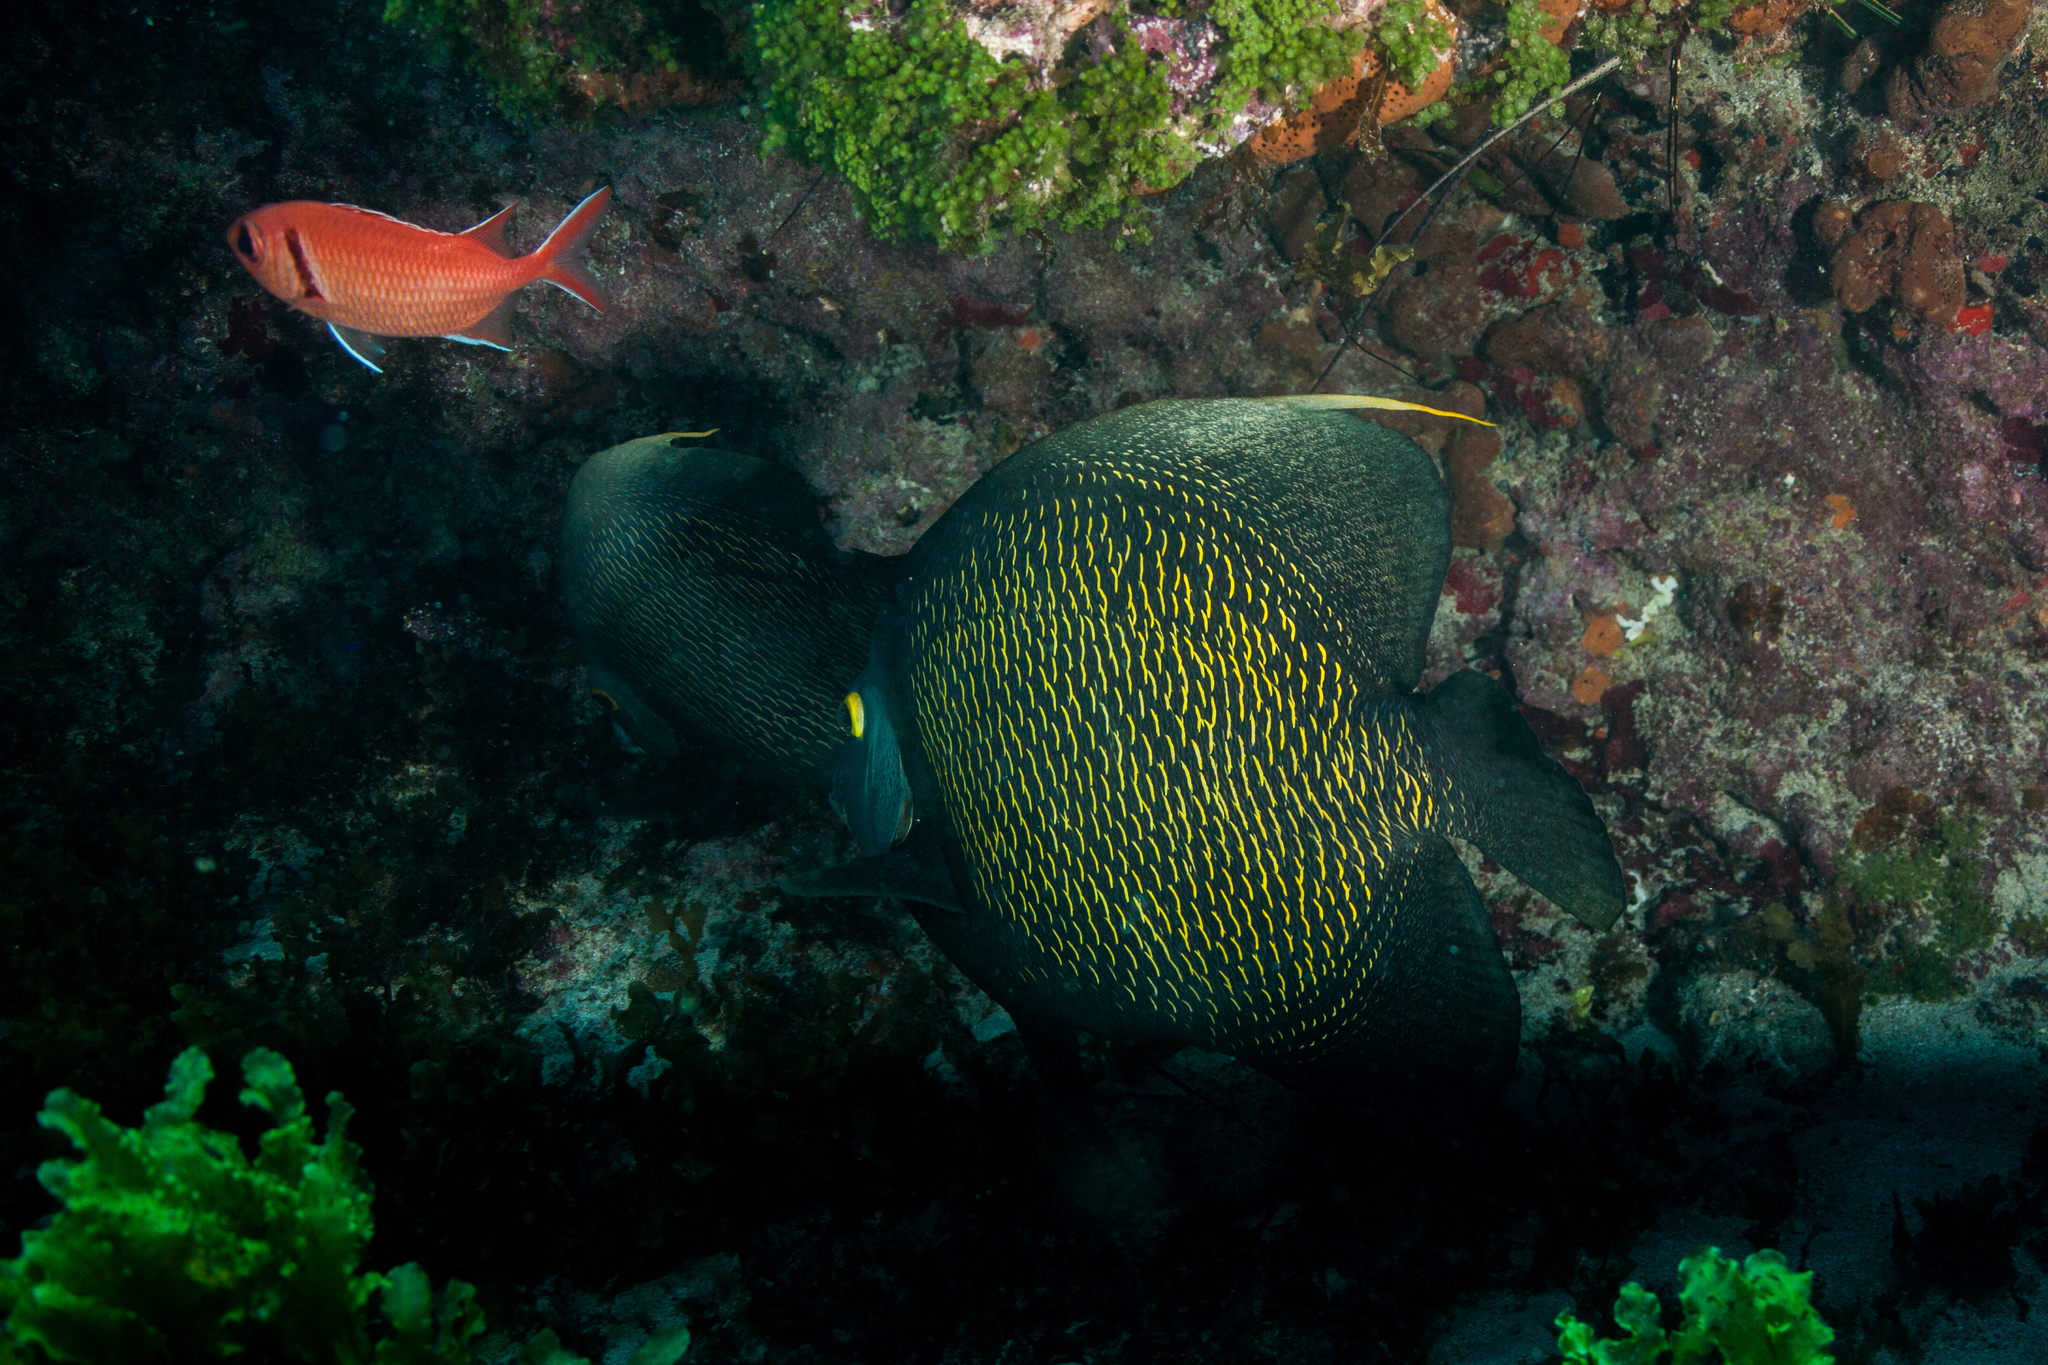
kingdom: Animalia
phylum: Chordata
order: Perciformes
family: Pomacanthidae
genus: Pomacanthus
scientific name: Pomacanthus paru
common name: French angelfish
